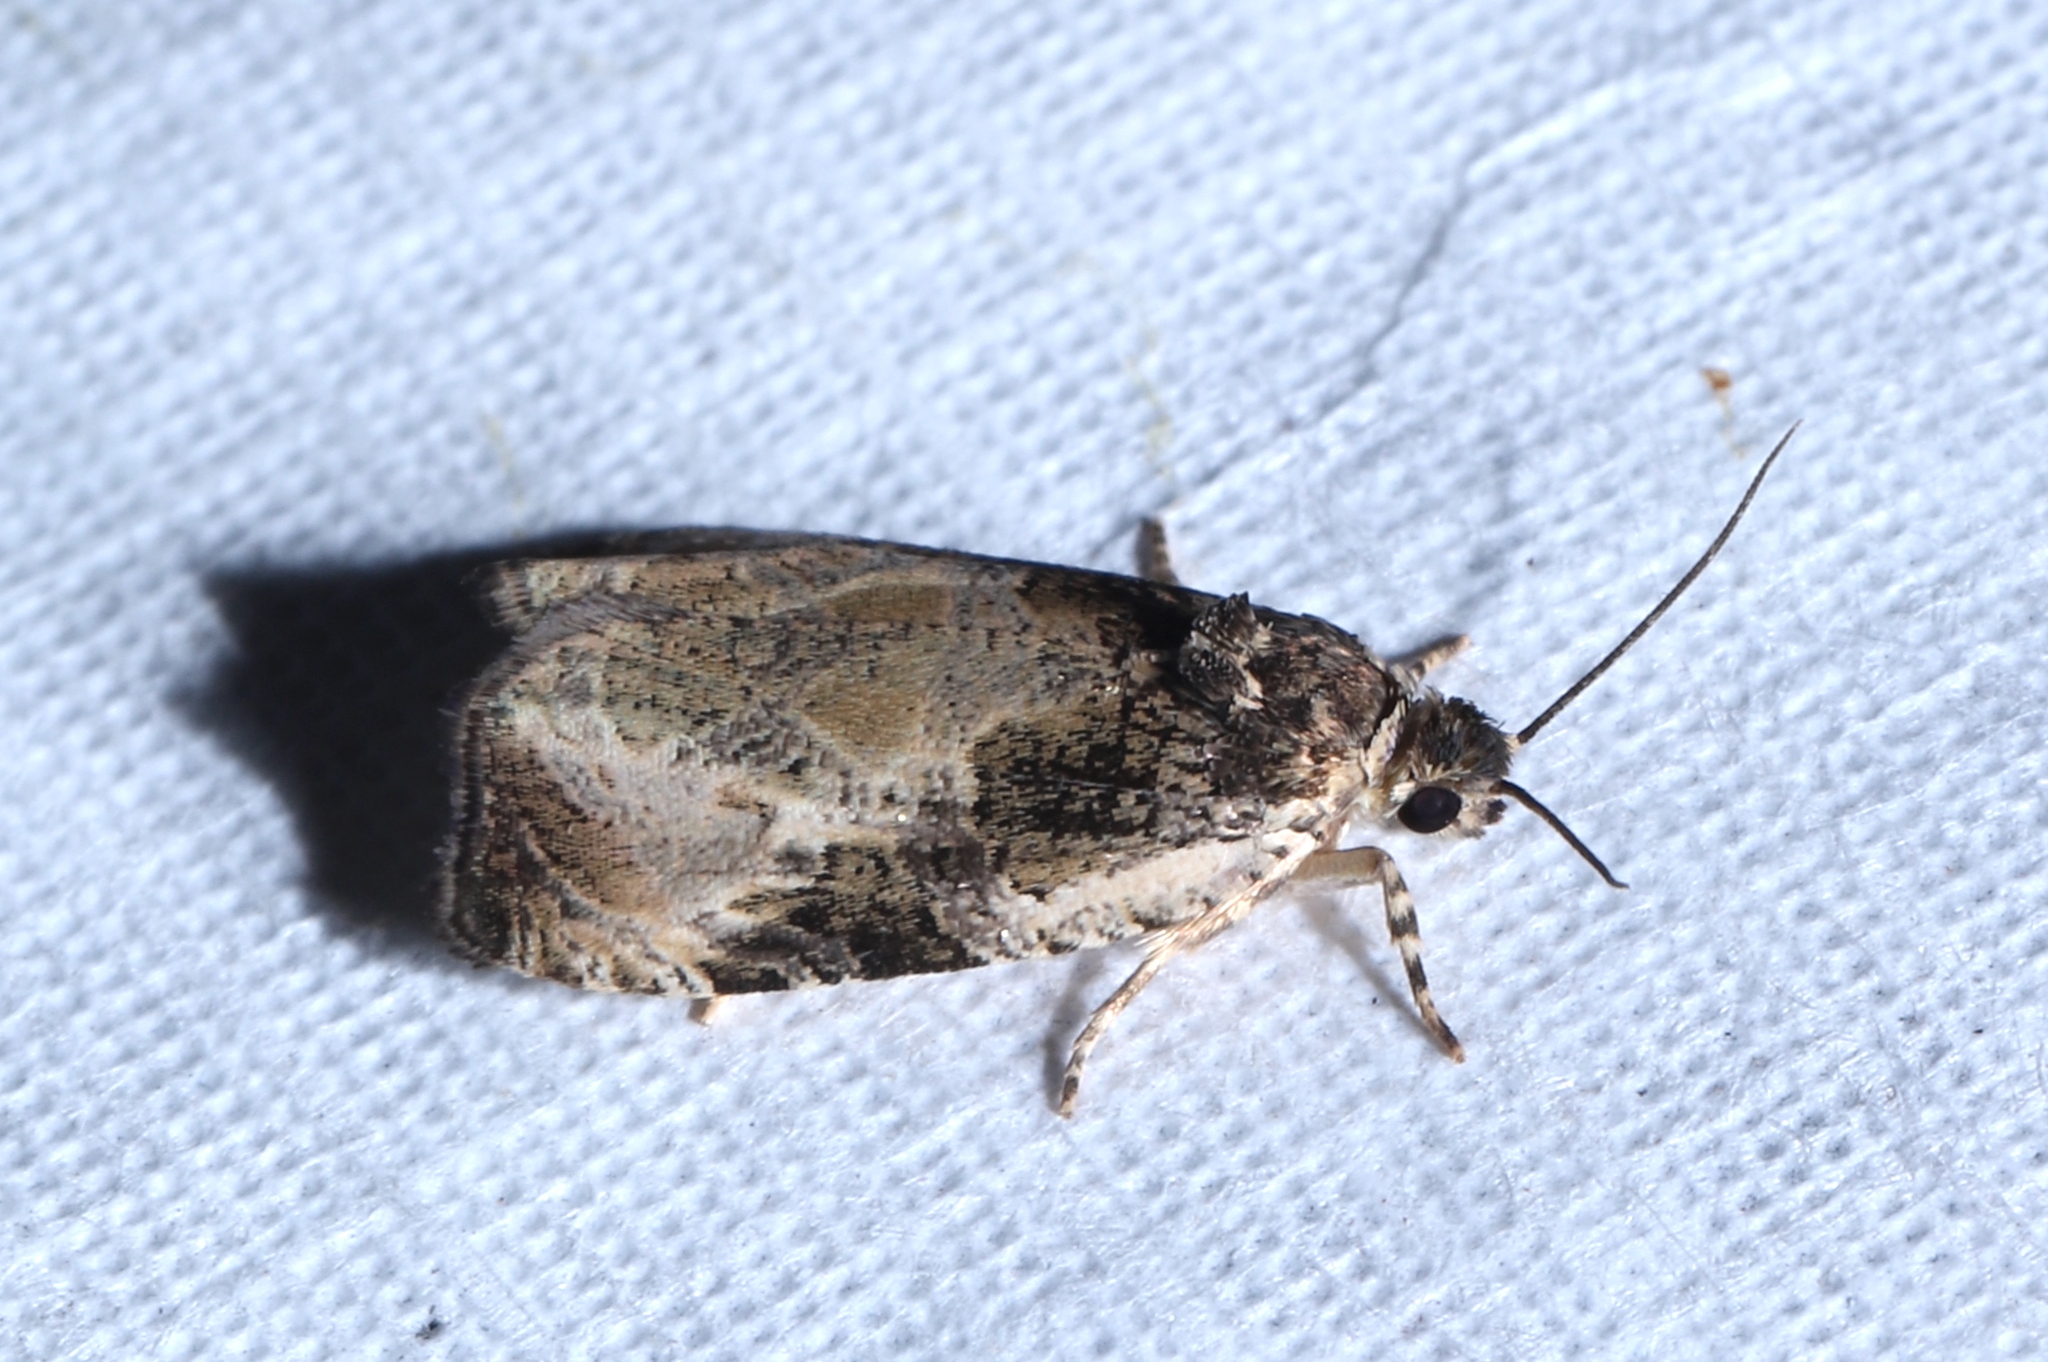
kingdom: Animalia
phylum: Arthropoda
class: Insecta
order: Lepidoptera
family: Tortricidae
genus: Olethreutes
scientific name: Olethreutes connectum
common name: Bunchberry leaffolder moth
